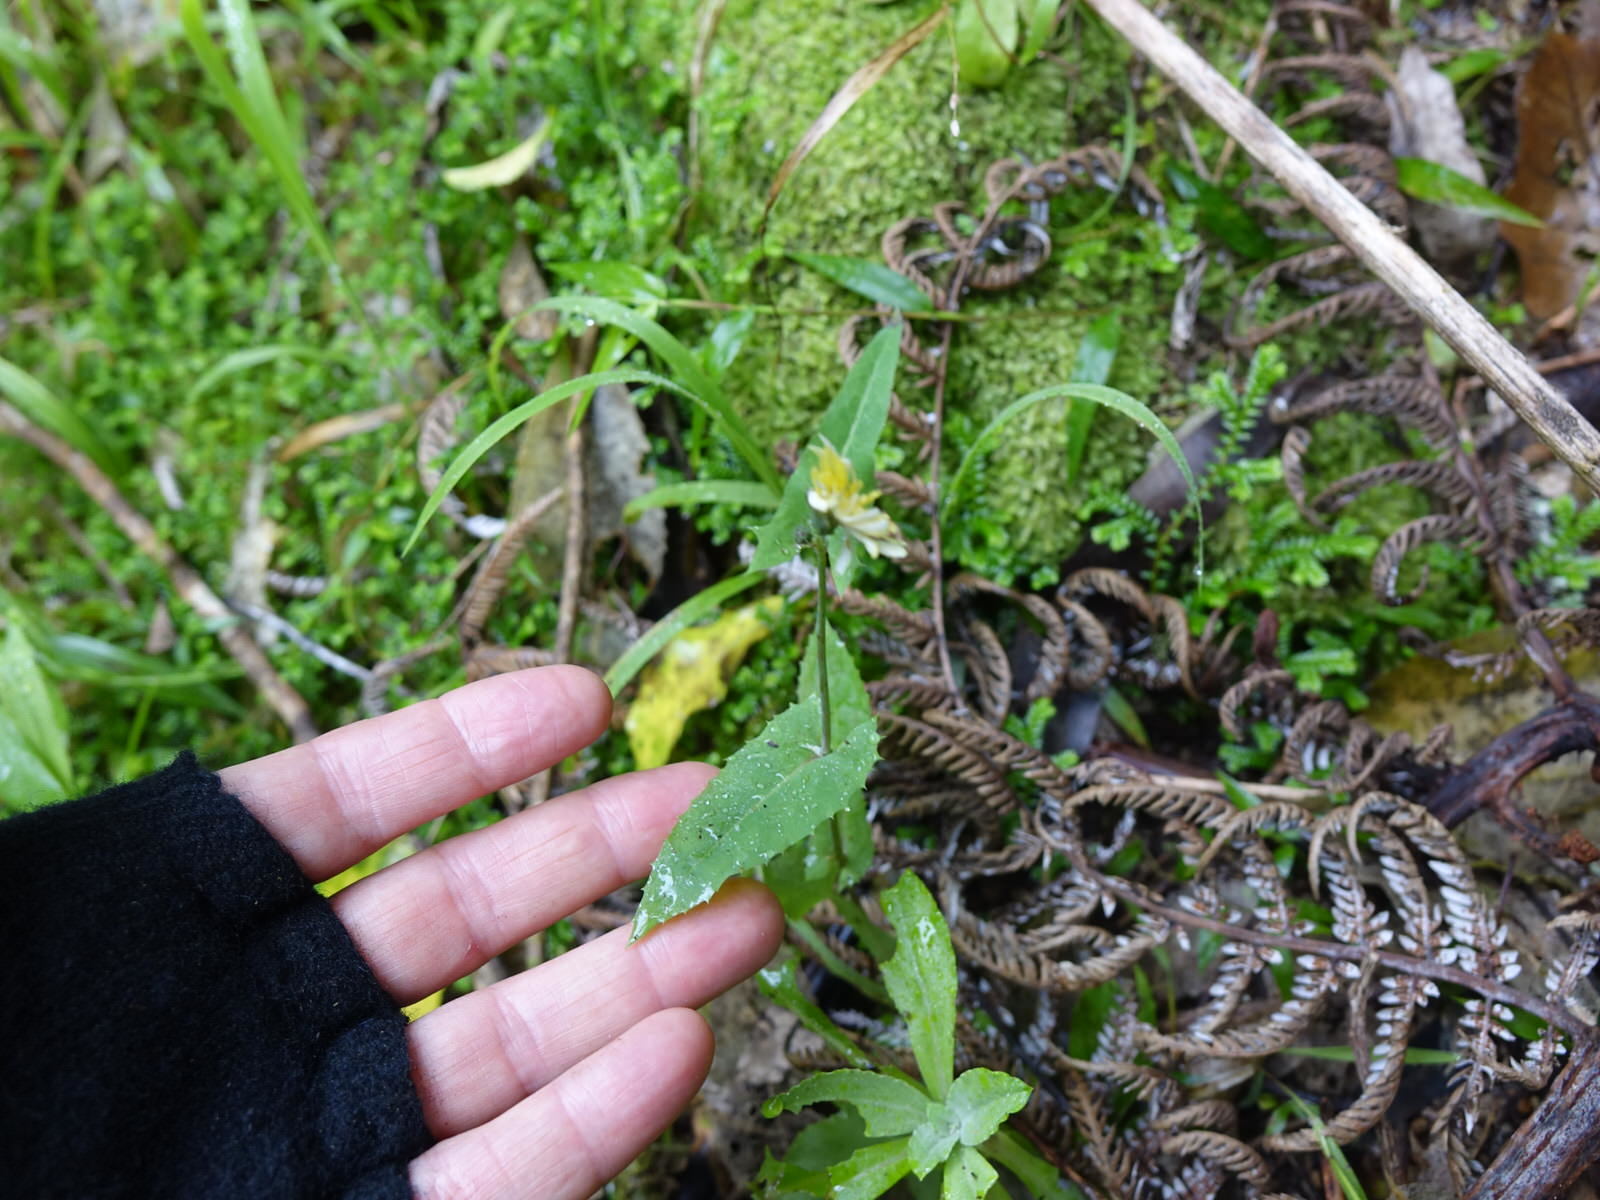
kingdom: Plantae
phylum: Tracheophyta
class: Magnoliopsida
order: Asterales
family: Asteraceae
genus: Sonchus
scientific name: Sonchus oleraceus
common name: Common sowthistle
